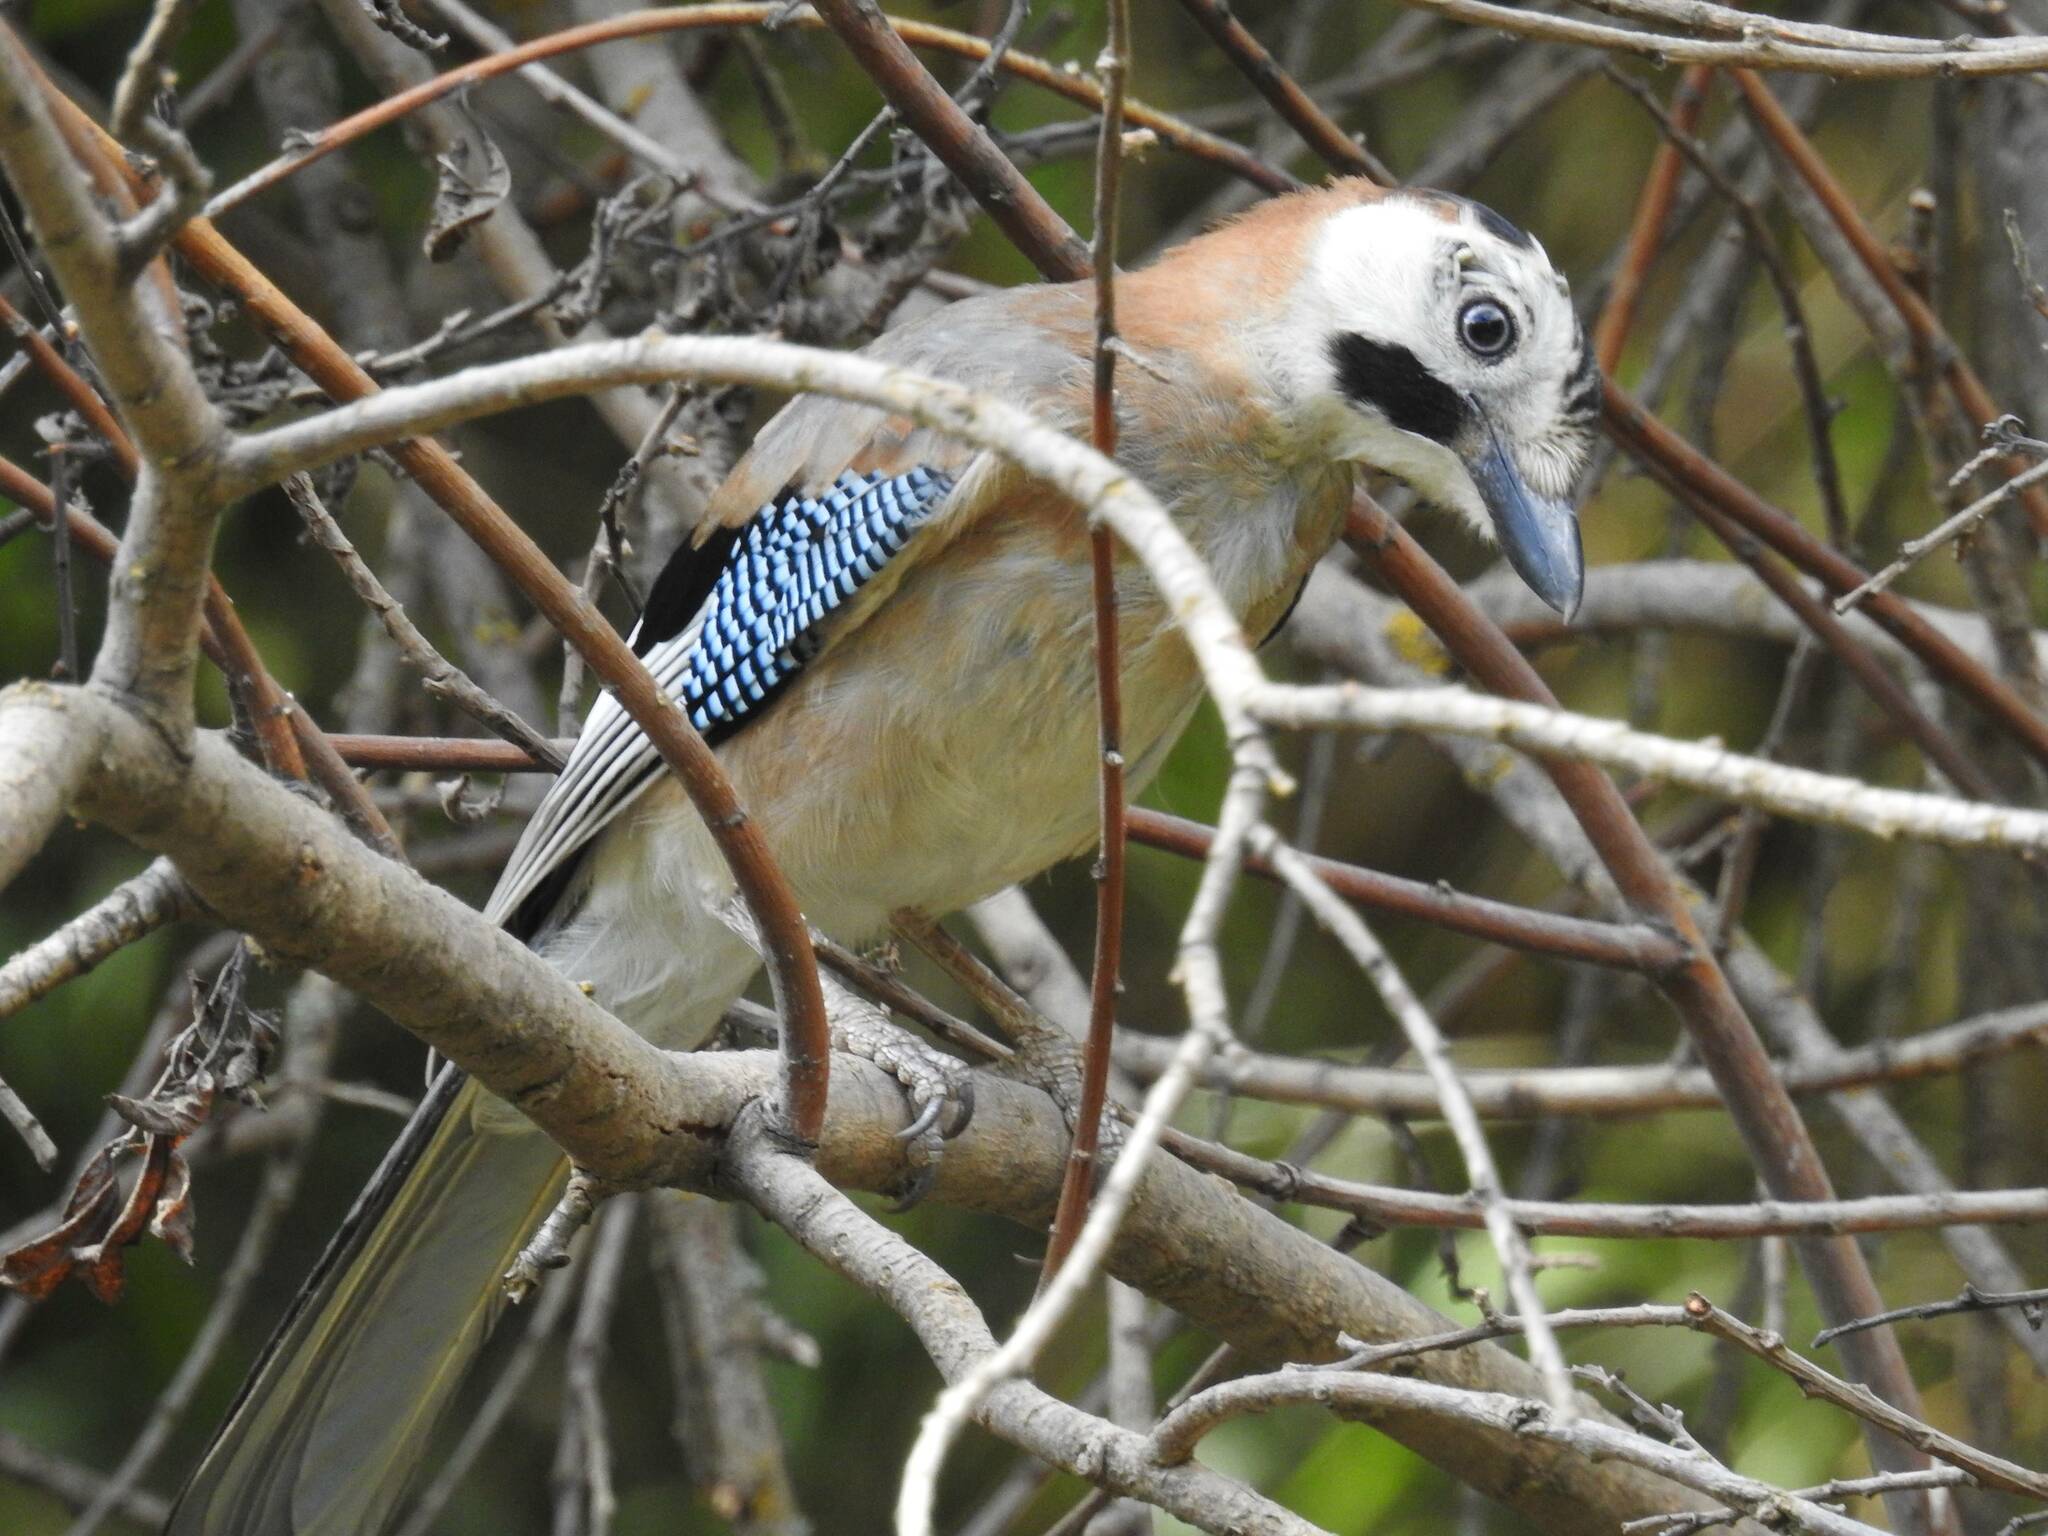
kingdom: Animalia
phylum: Chordata
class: Aves
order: Passeriformes
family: Corvidae
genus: Garrulus
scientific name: Garrulus glandarius
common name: Eurasian jay
